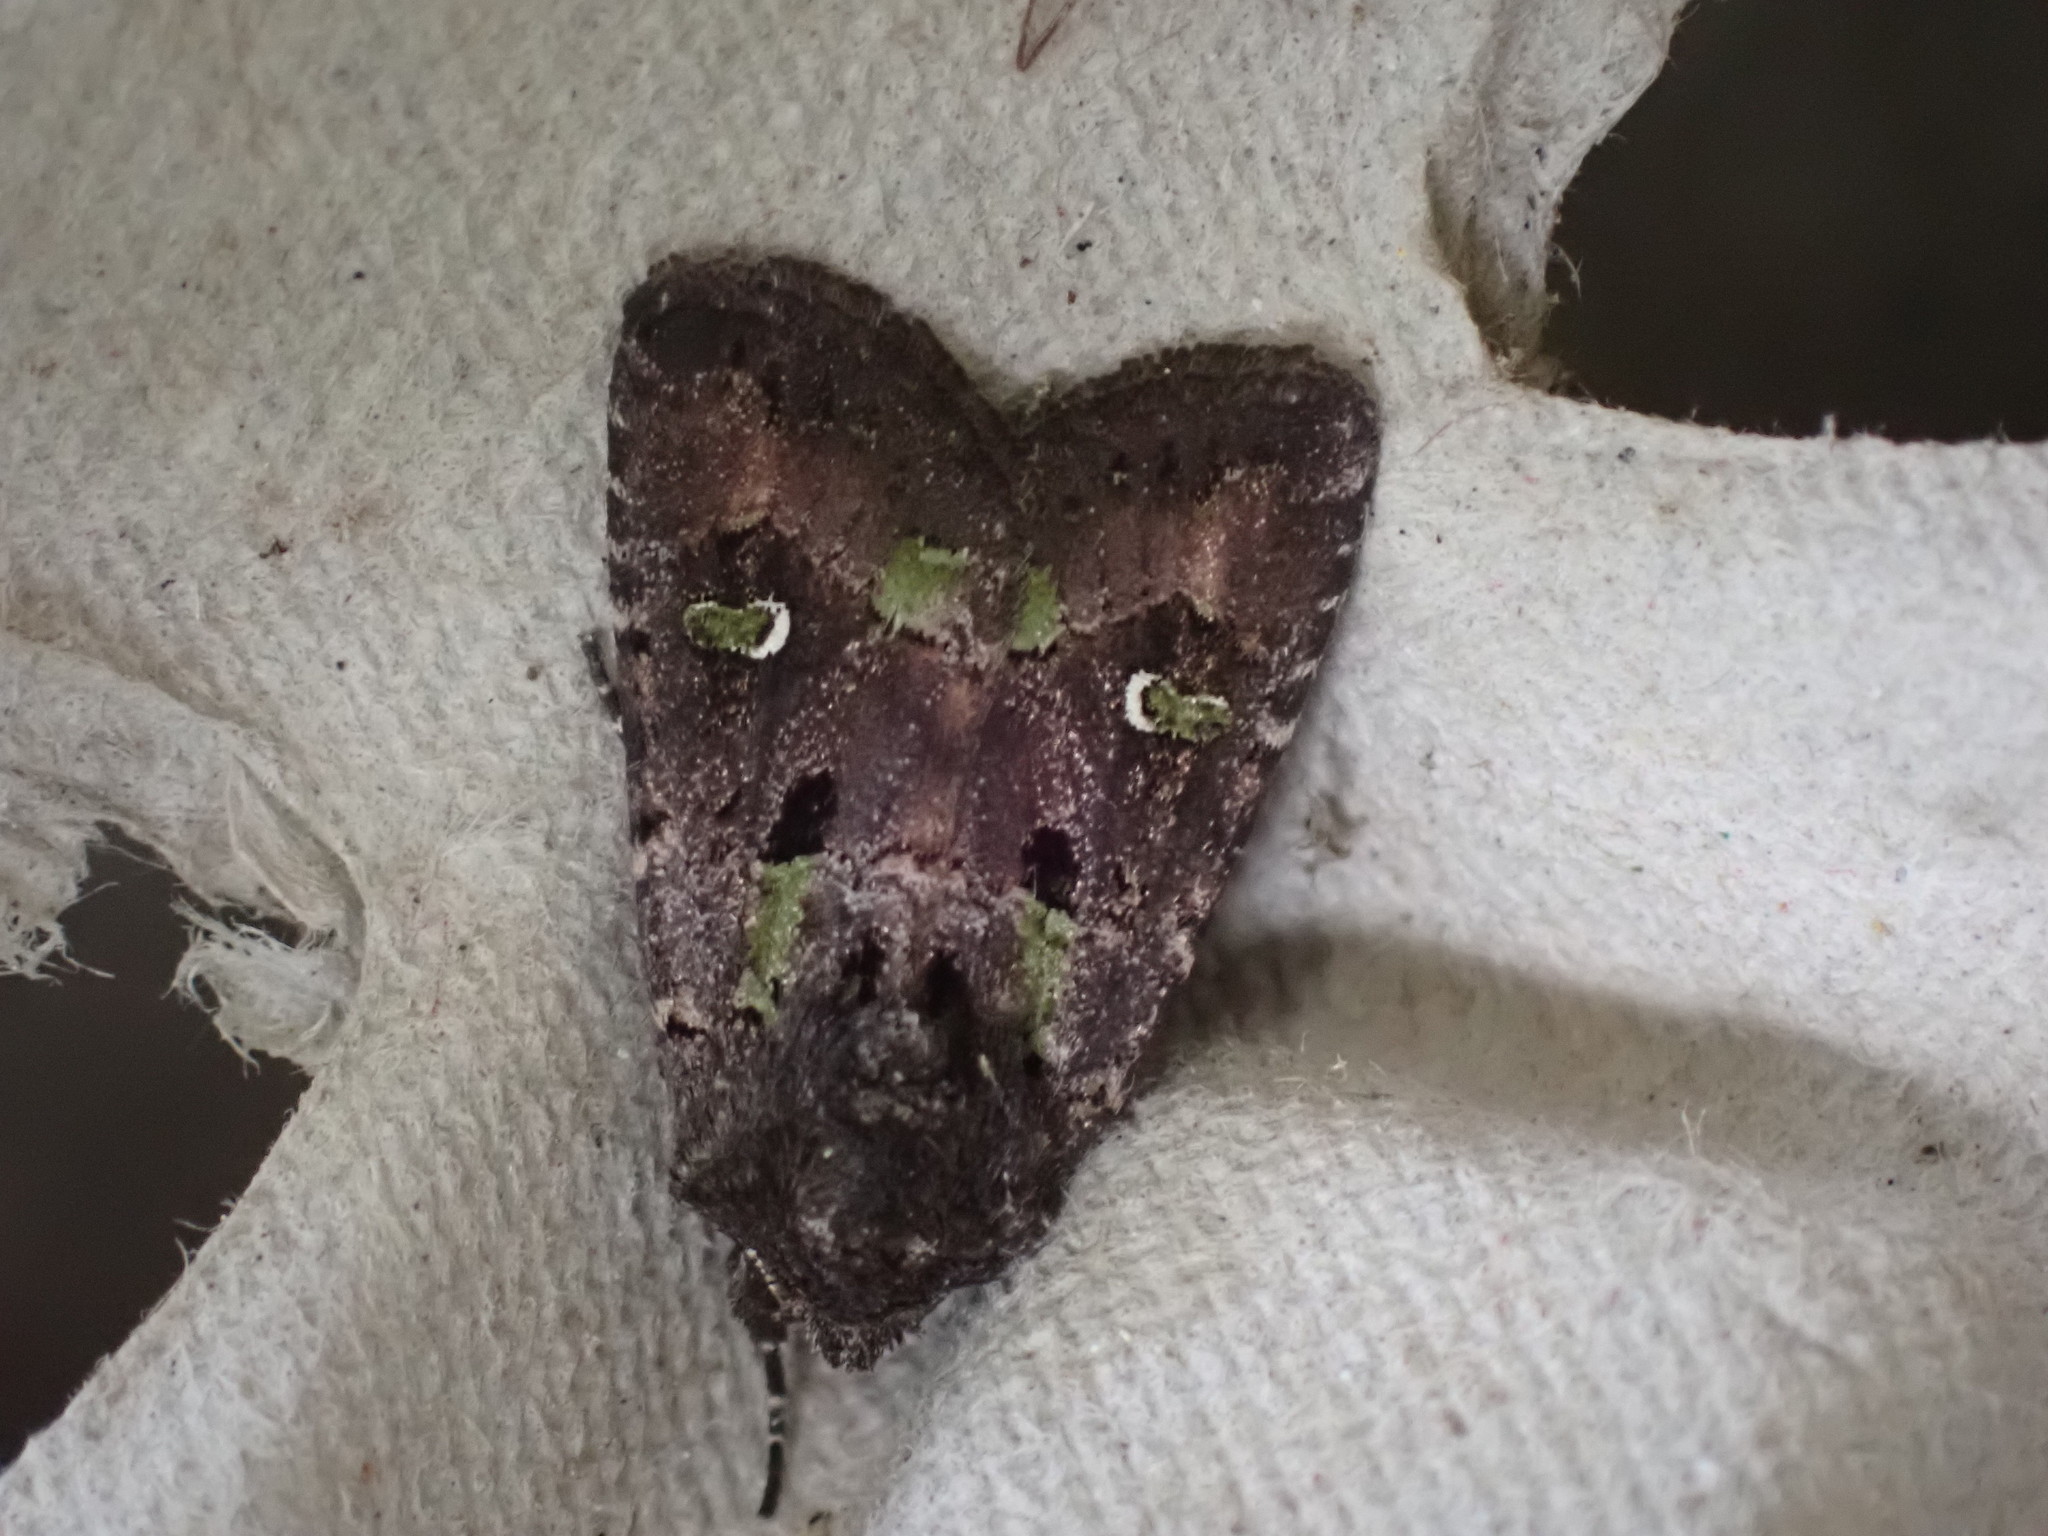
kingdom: Animalia
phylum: Arthropoda
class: Insecta
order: Lepidoptera
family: Noctuidae
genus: Lacinipolia
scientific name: Lacinipolia renigera
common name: Kidney-spotted minor
